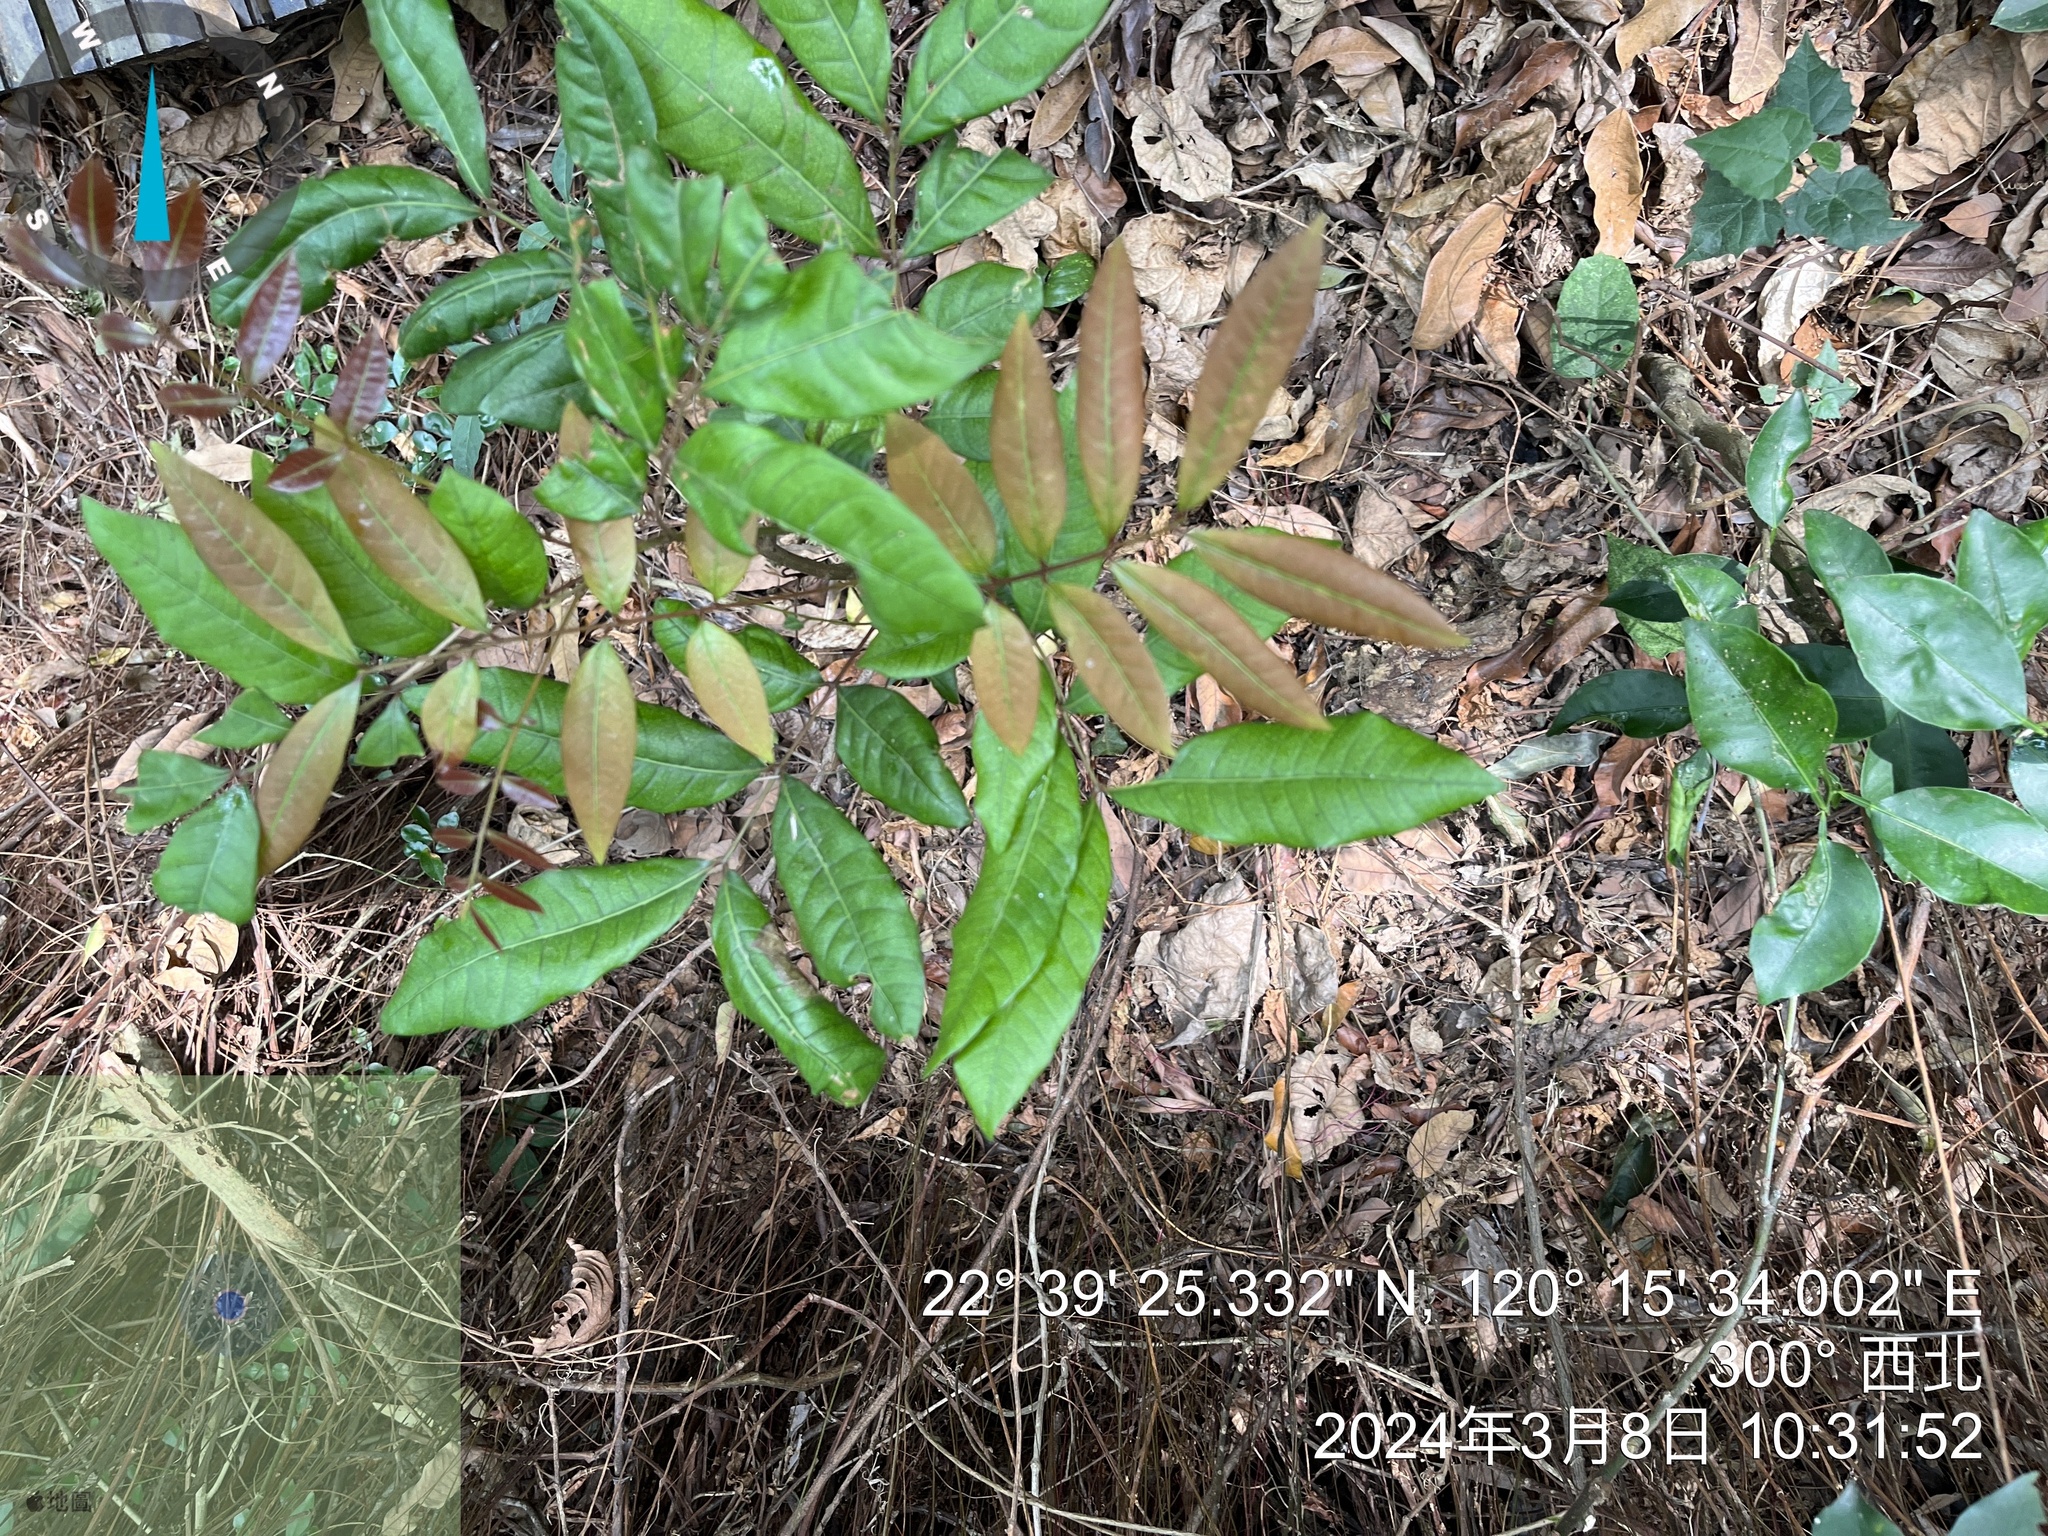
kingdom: Plantae
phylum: Tracheophyta
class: Magnoliopsida
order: Sapindales
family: Sapindaceae
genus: Dimocarpus
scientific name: Dimocarpus longan
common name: Longan
